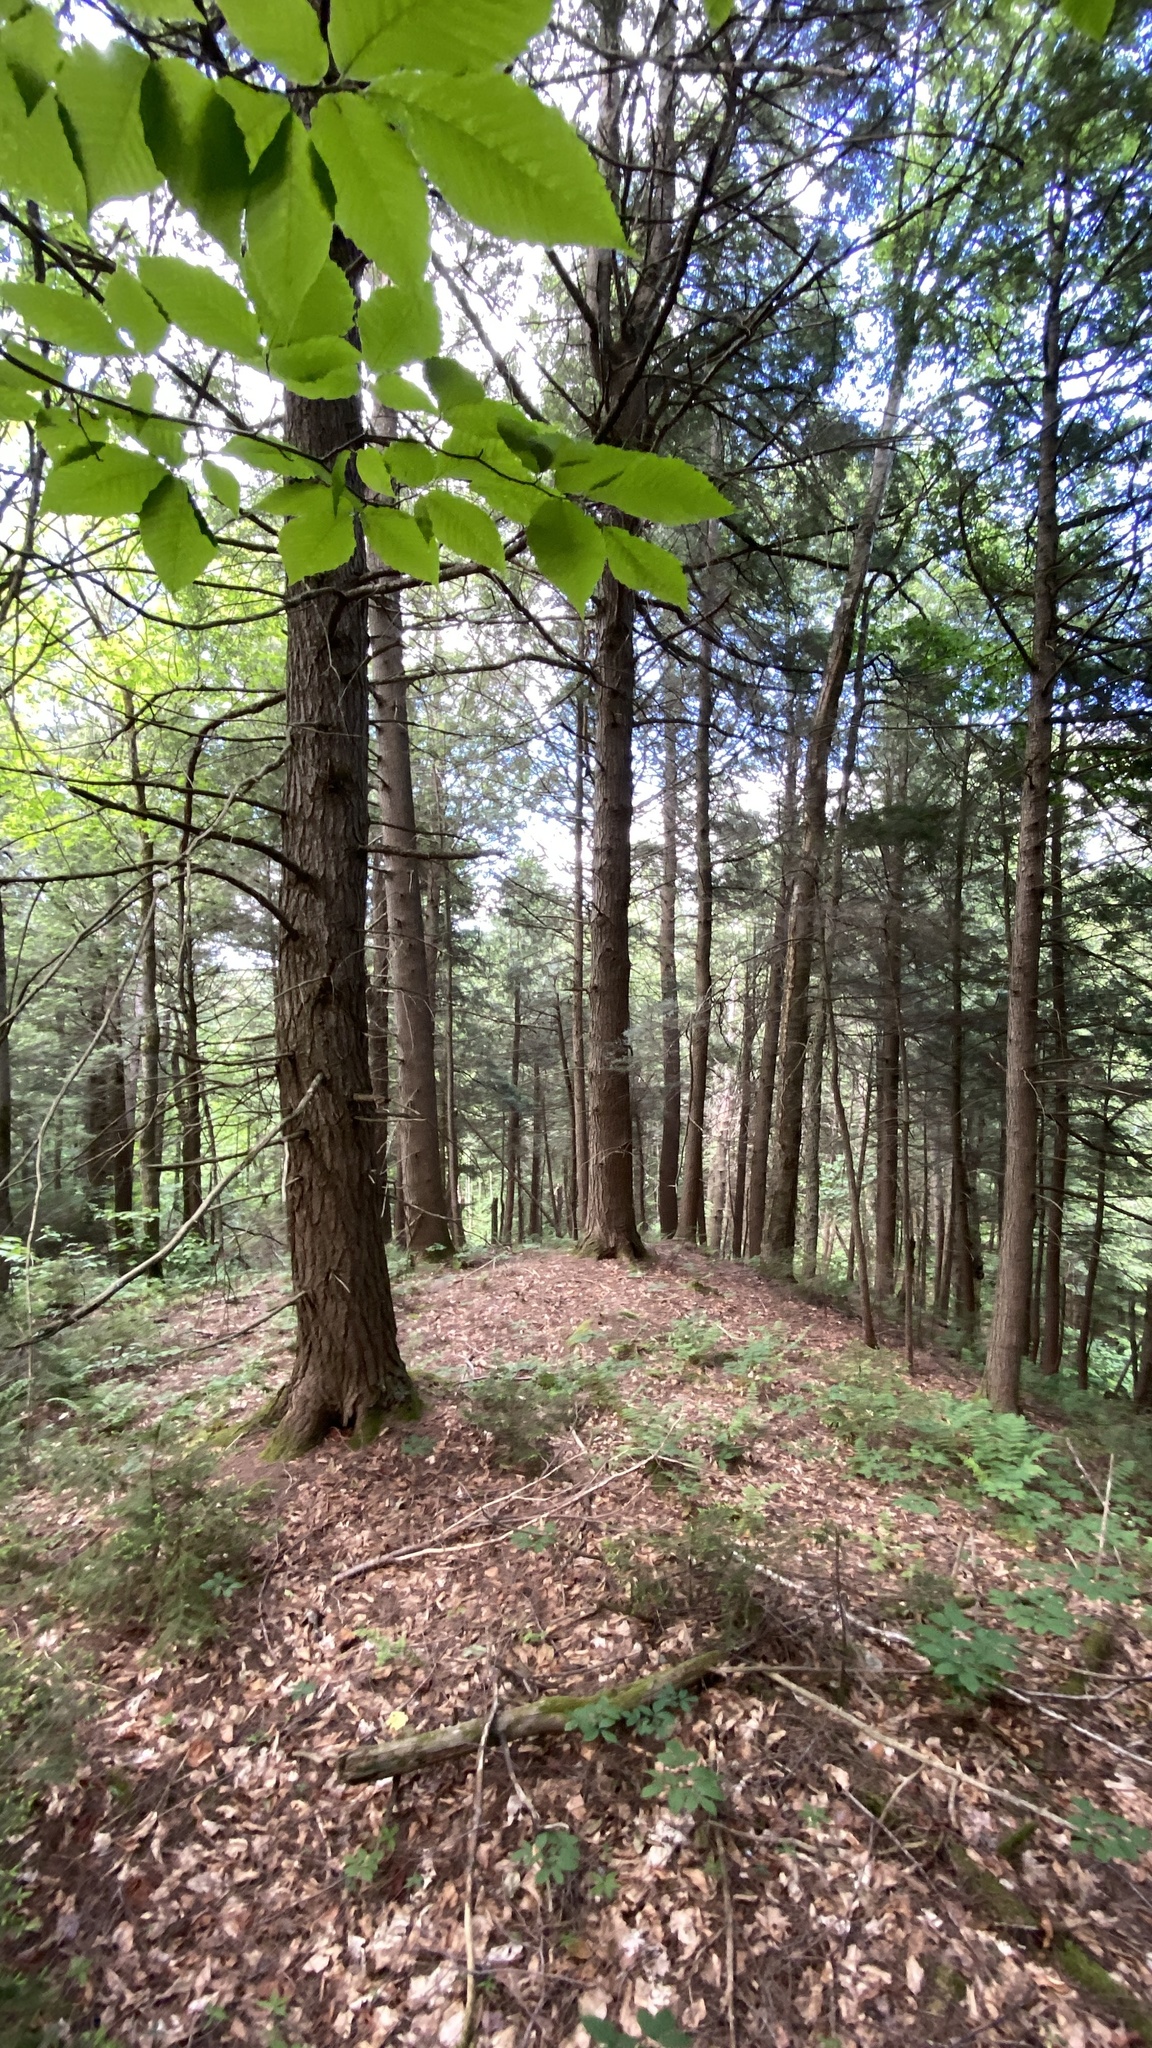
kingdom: Plantae
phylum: Tracheophyta
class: Pinopsida
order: Pinales
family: Pinaceae
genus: Tsuga
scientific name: Tsuga canadensis
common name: Eastern hemlock
